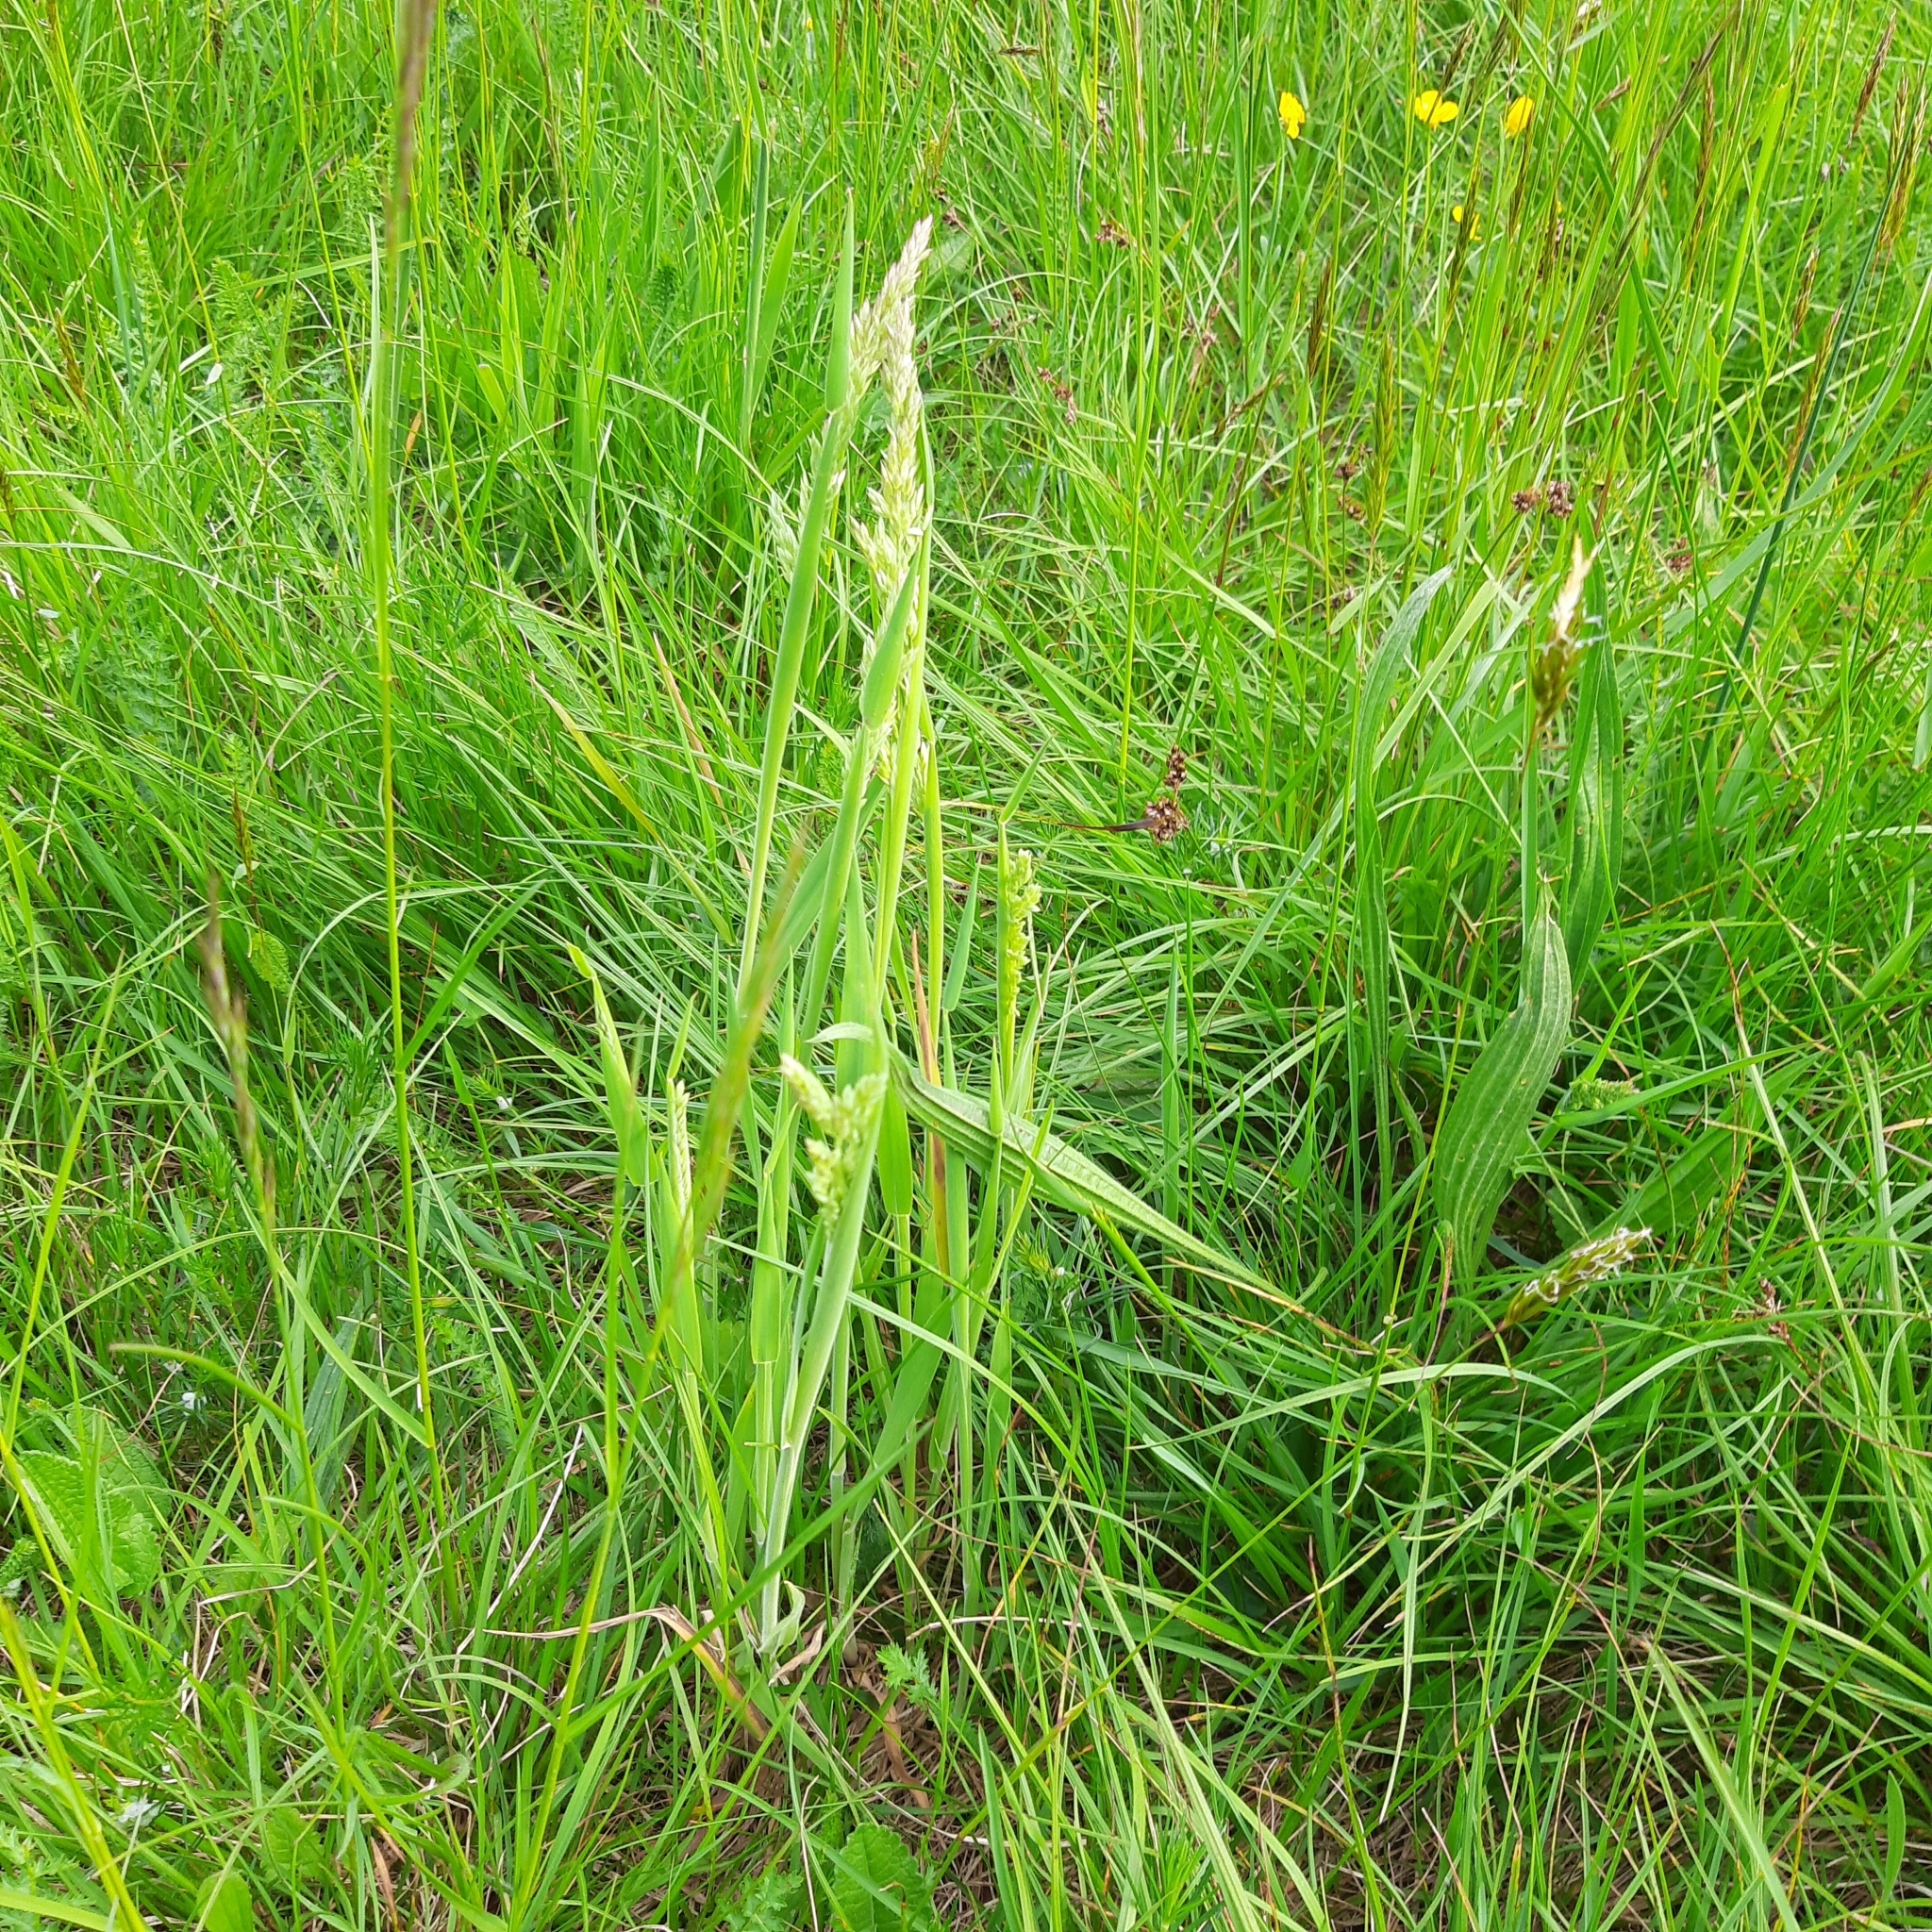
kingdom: Plantae
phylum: Tracheophyta
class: Liliopsida
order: Poales
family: Poaceae
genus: Holcus
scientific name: Holcus lanatus
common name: Yorkshire-fog
